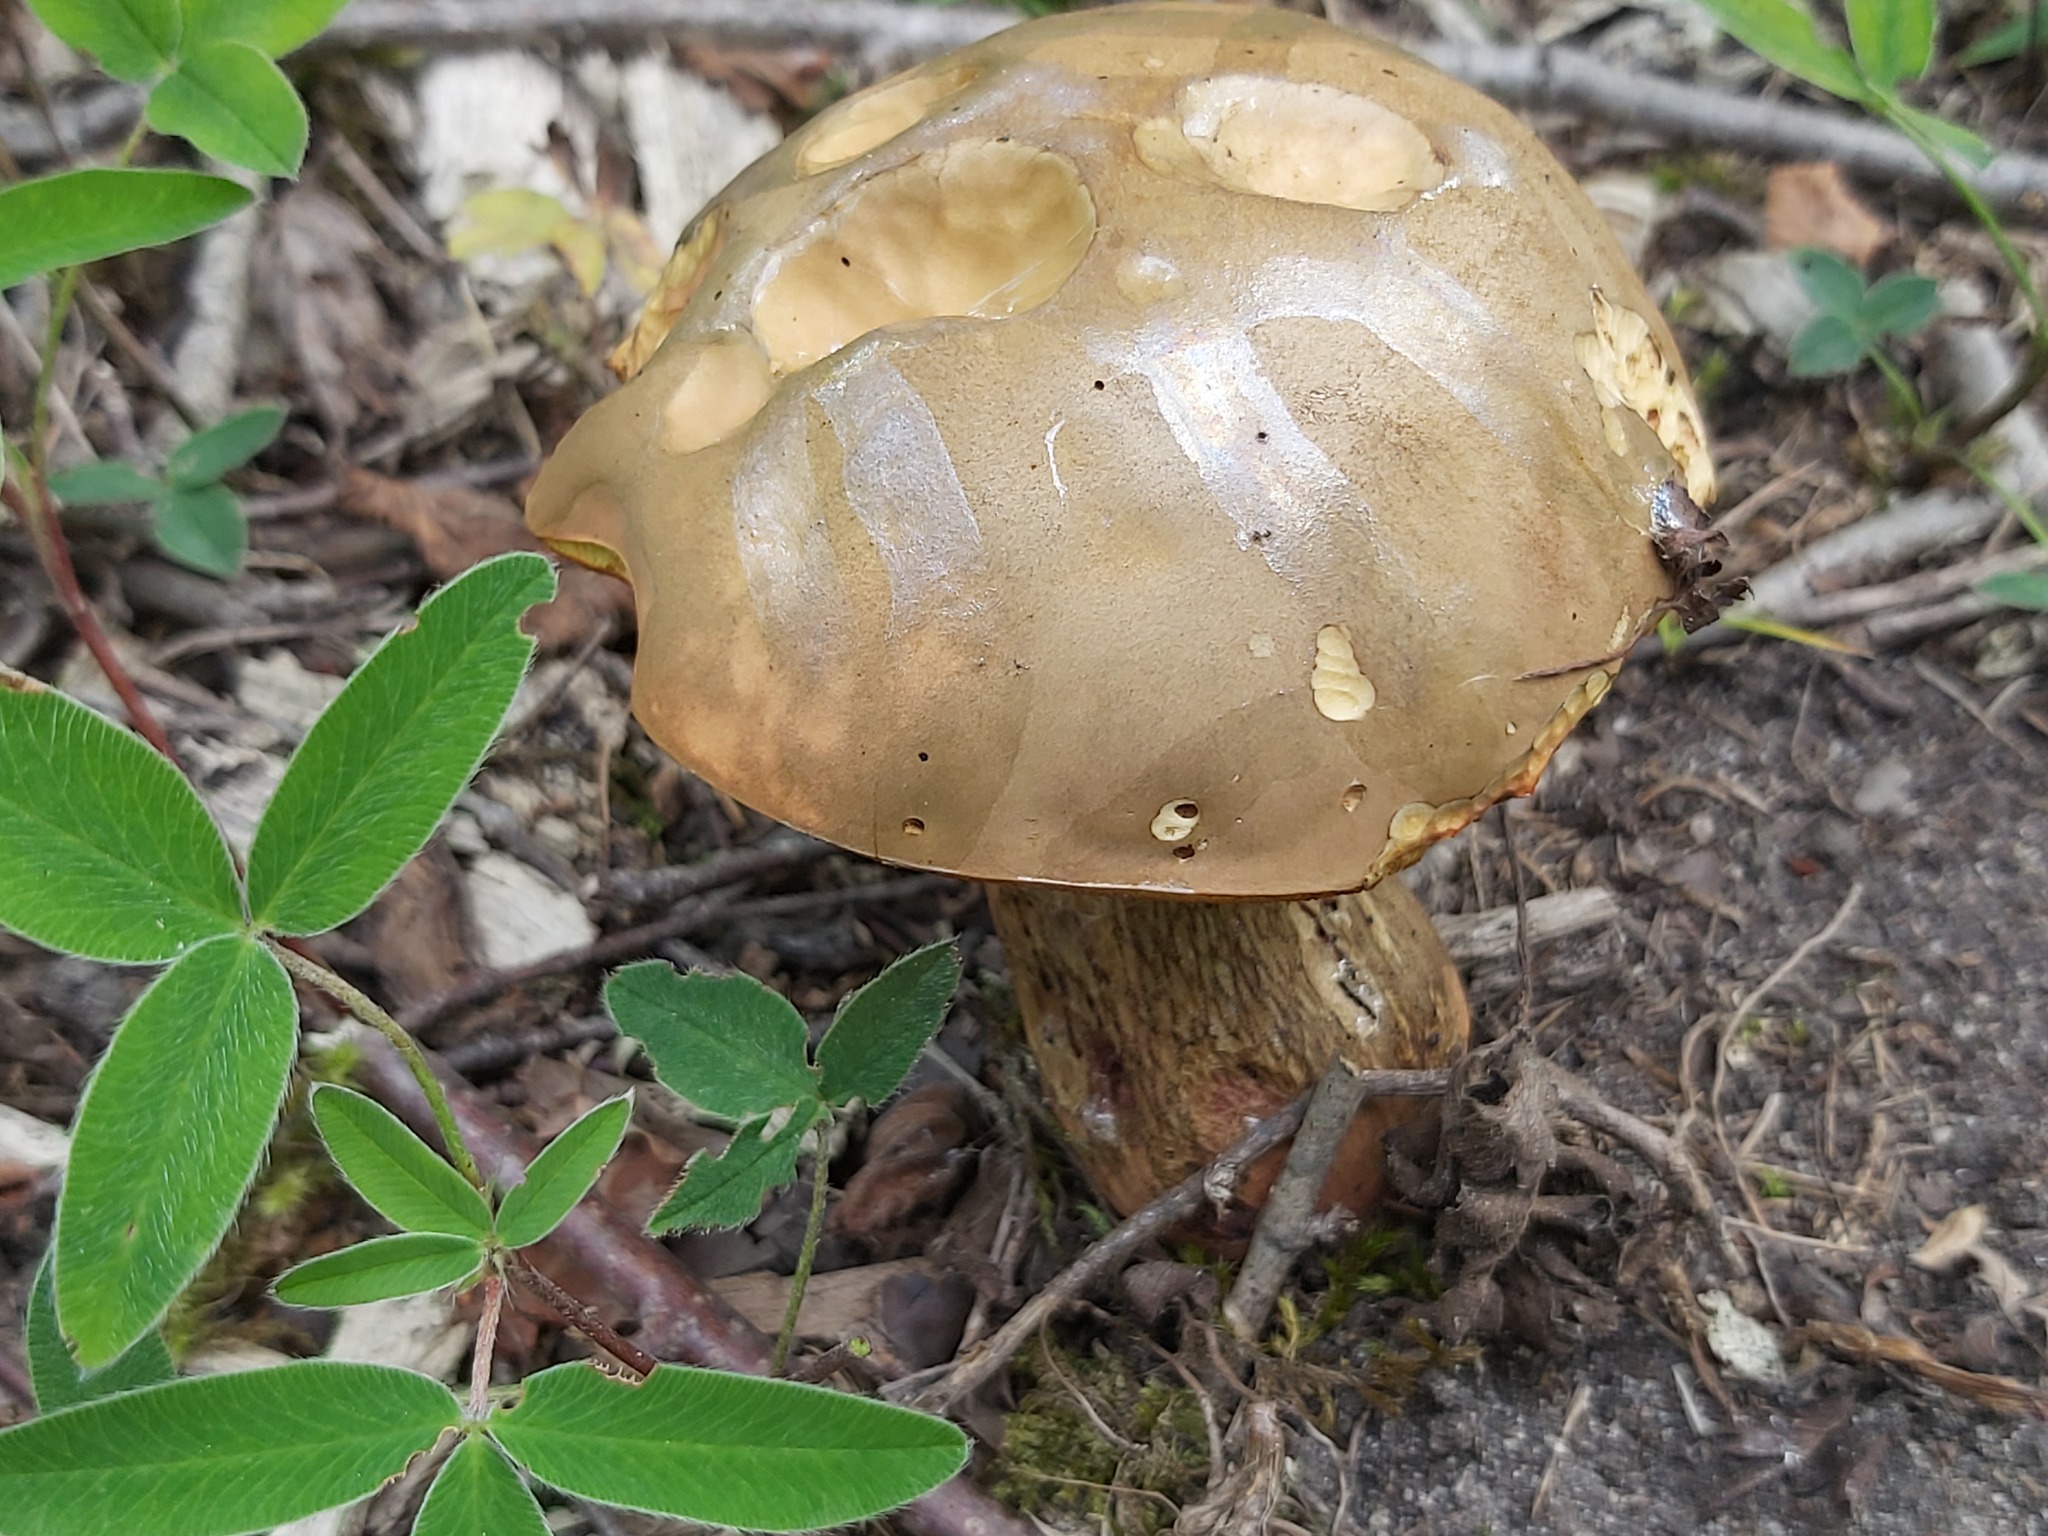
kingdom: Fungi
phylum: Basidiomycota
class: Agaricomycetes
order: Boletales
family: Boletaceae
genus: Tylopilus
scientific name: Tylopilus felleus
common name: Bitter bolete
